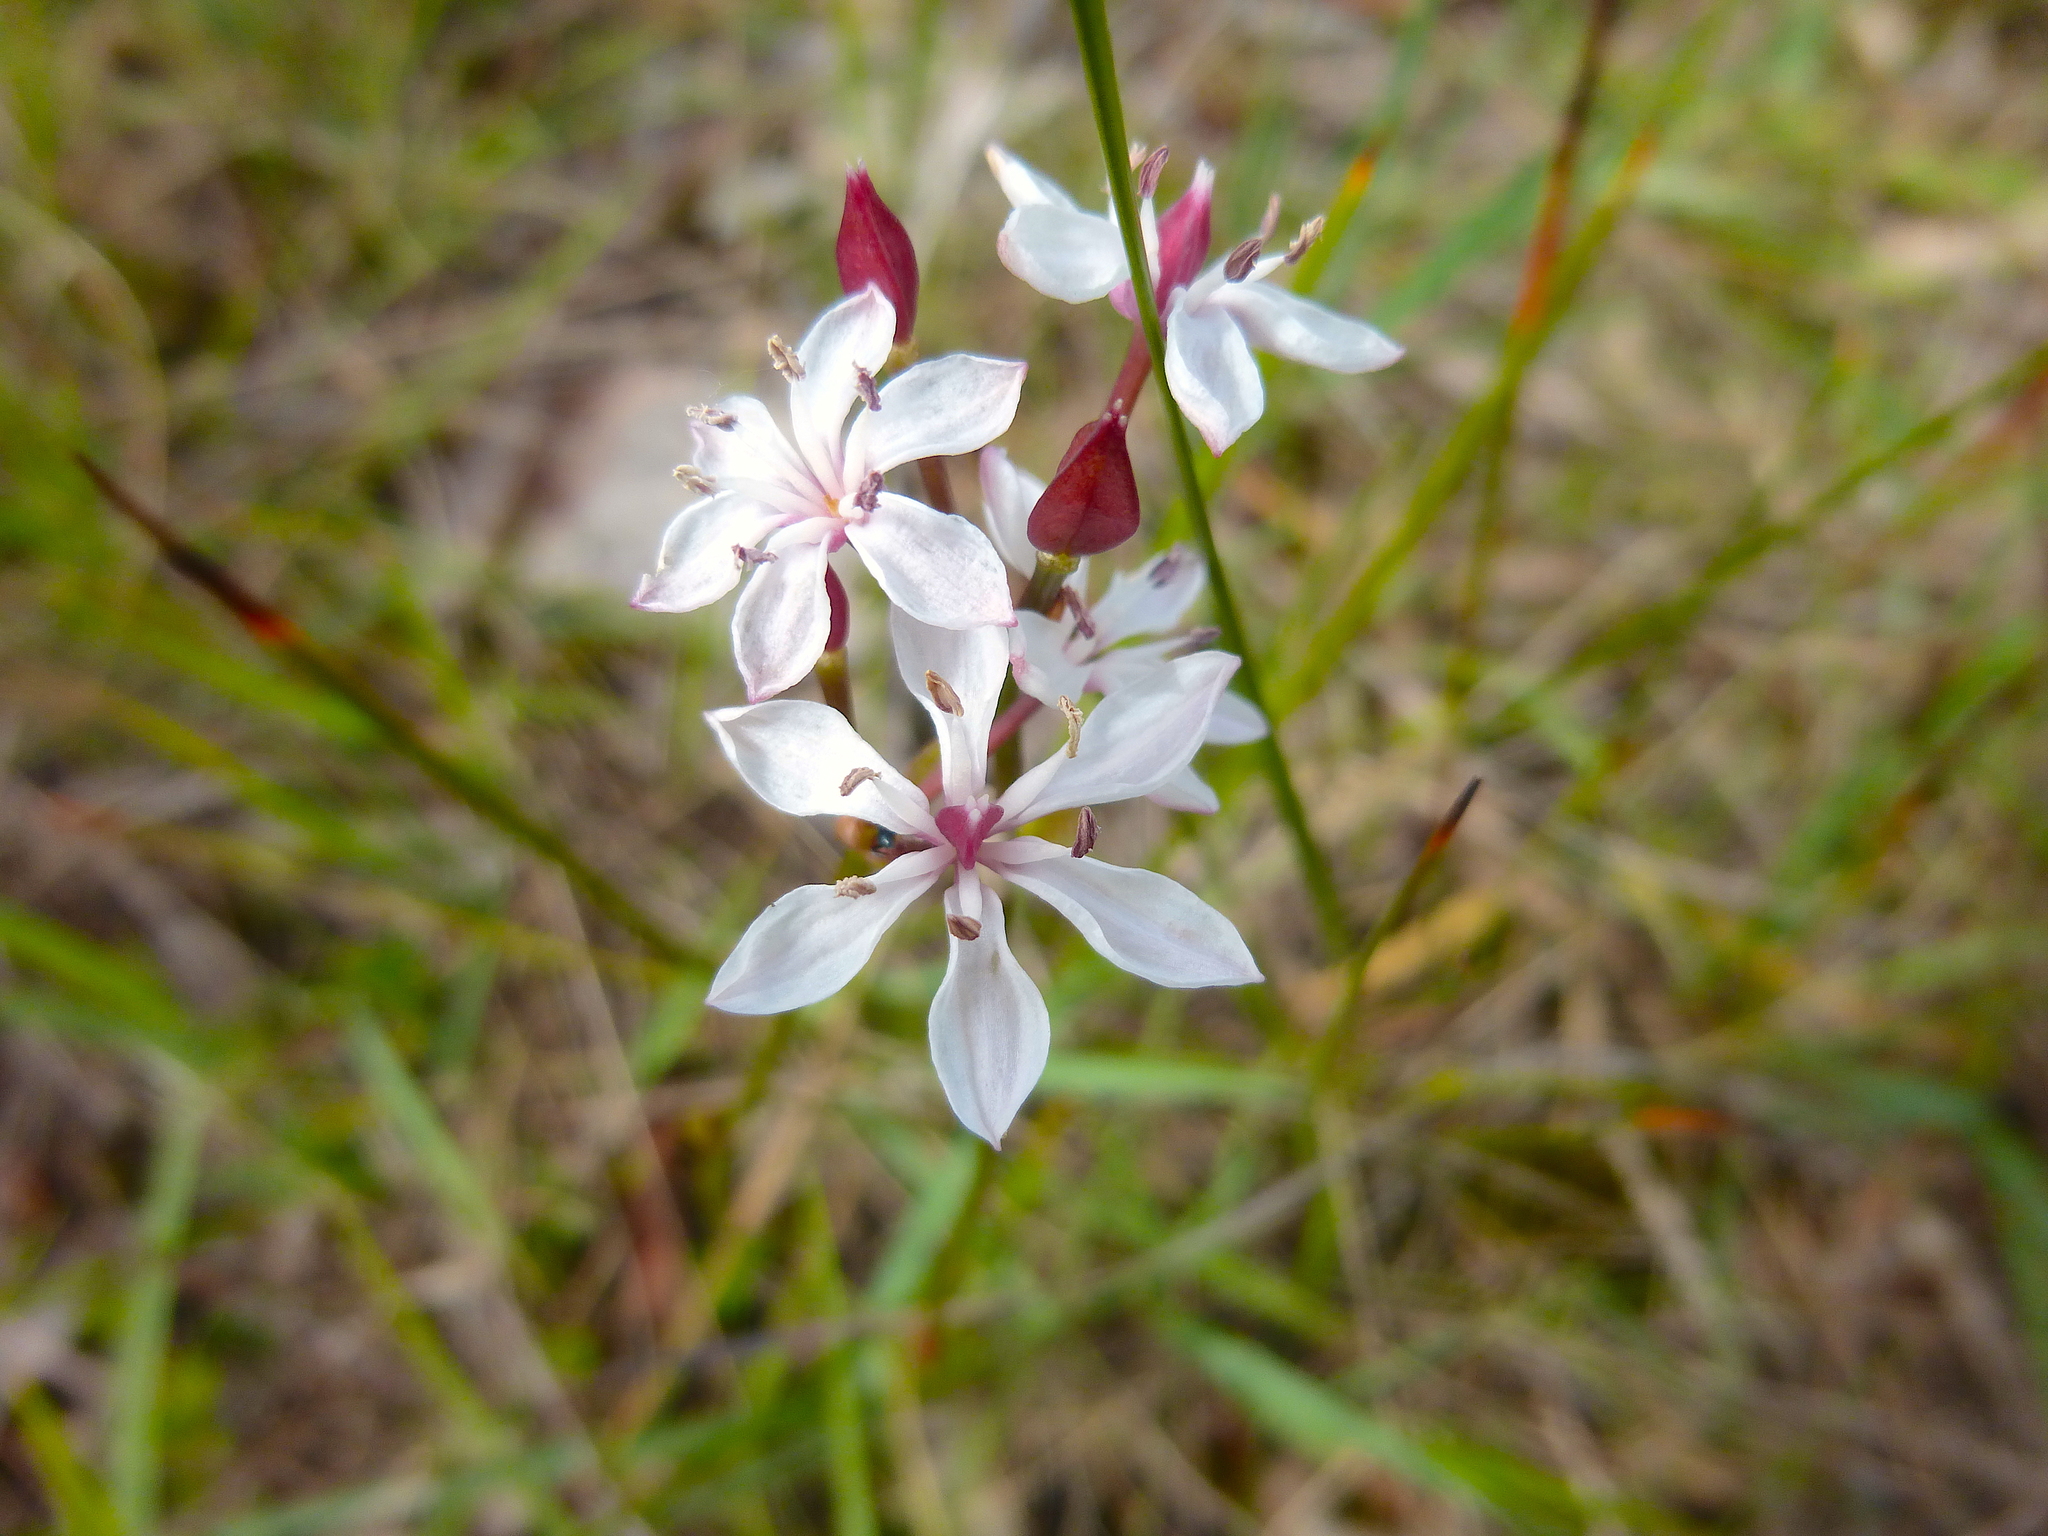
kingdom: Plantae
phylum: Tracheophyta
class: Liliopsida
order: Liliales
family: Colchicaceae
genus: Burchardia
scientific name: Burchardia umbellata
